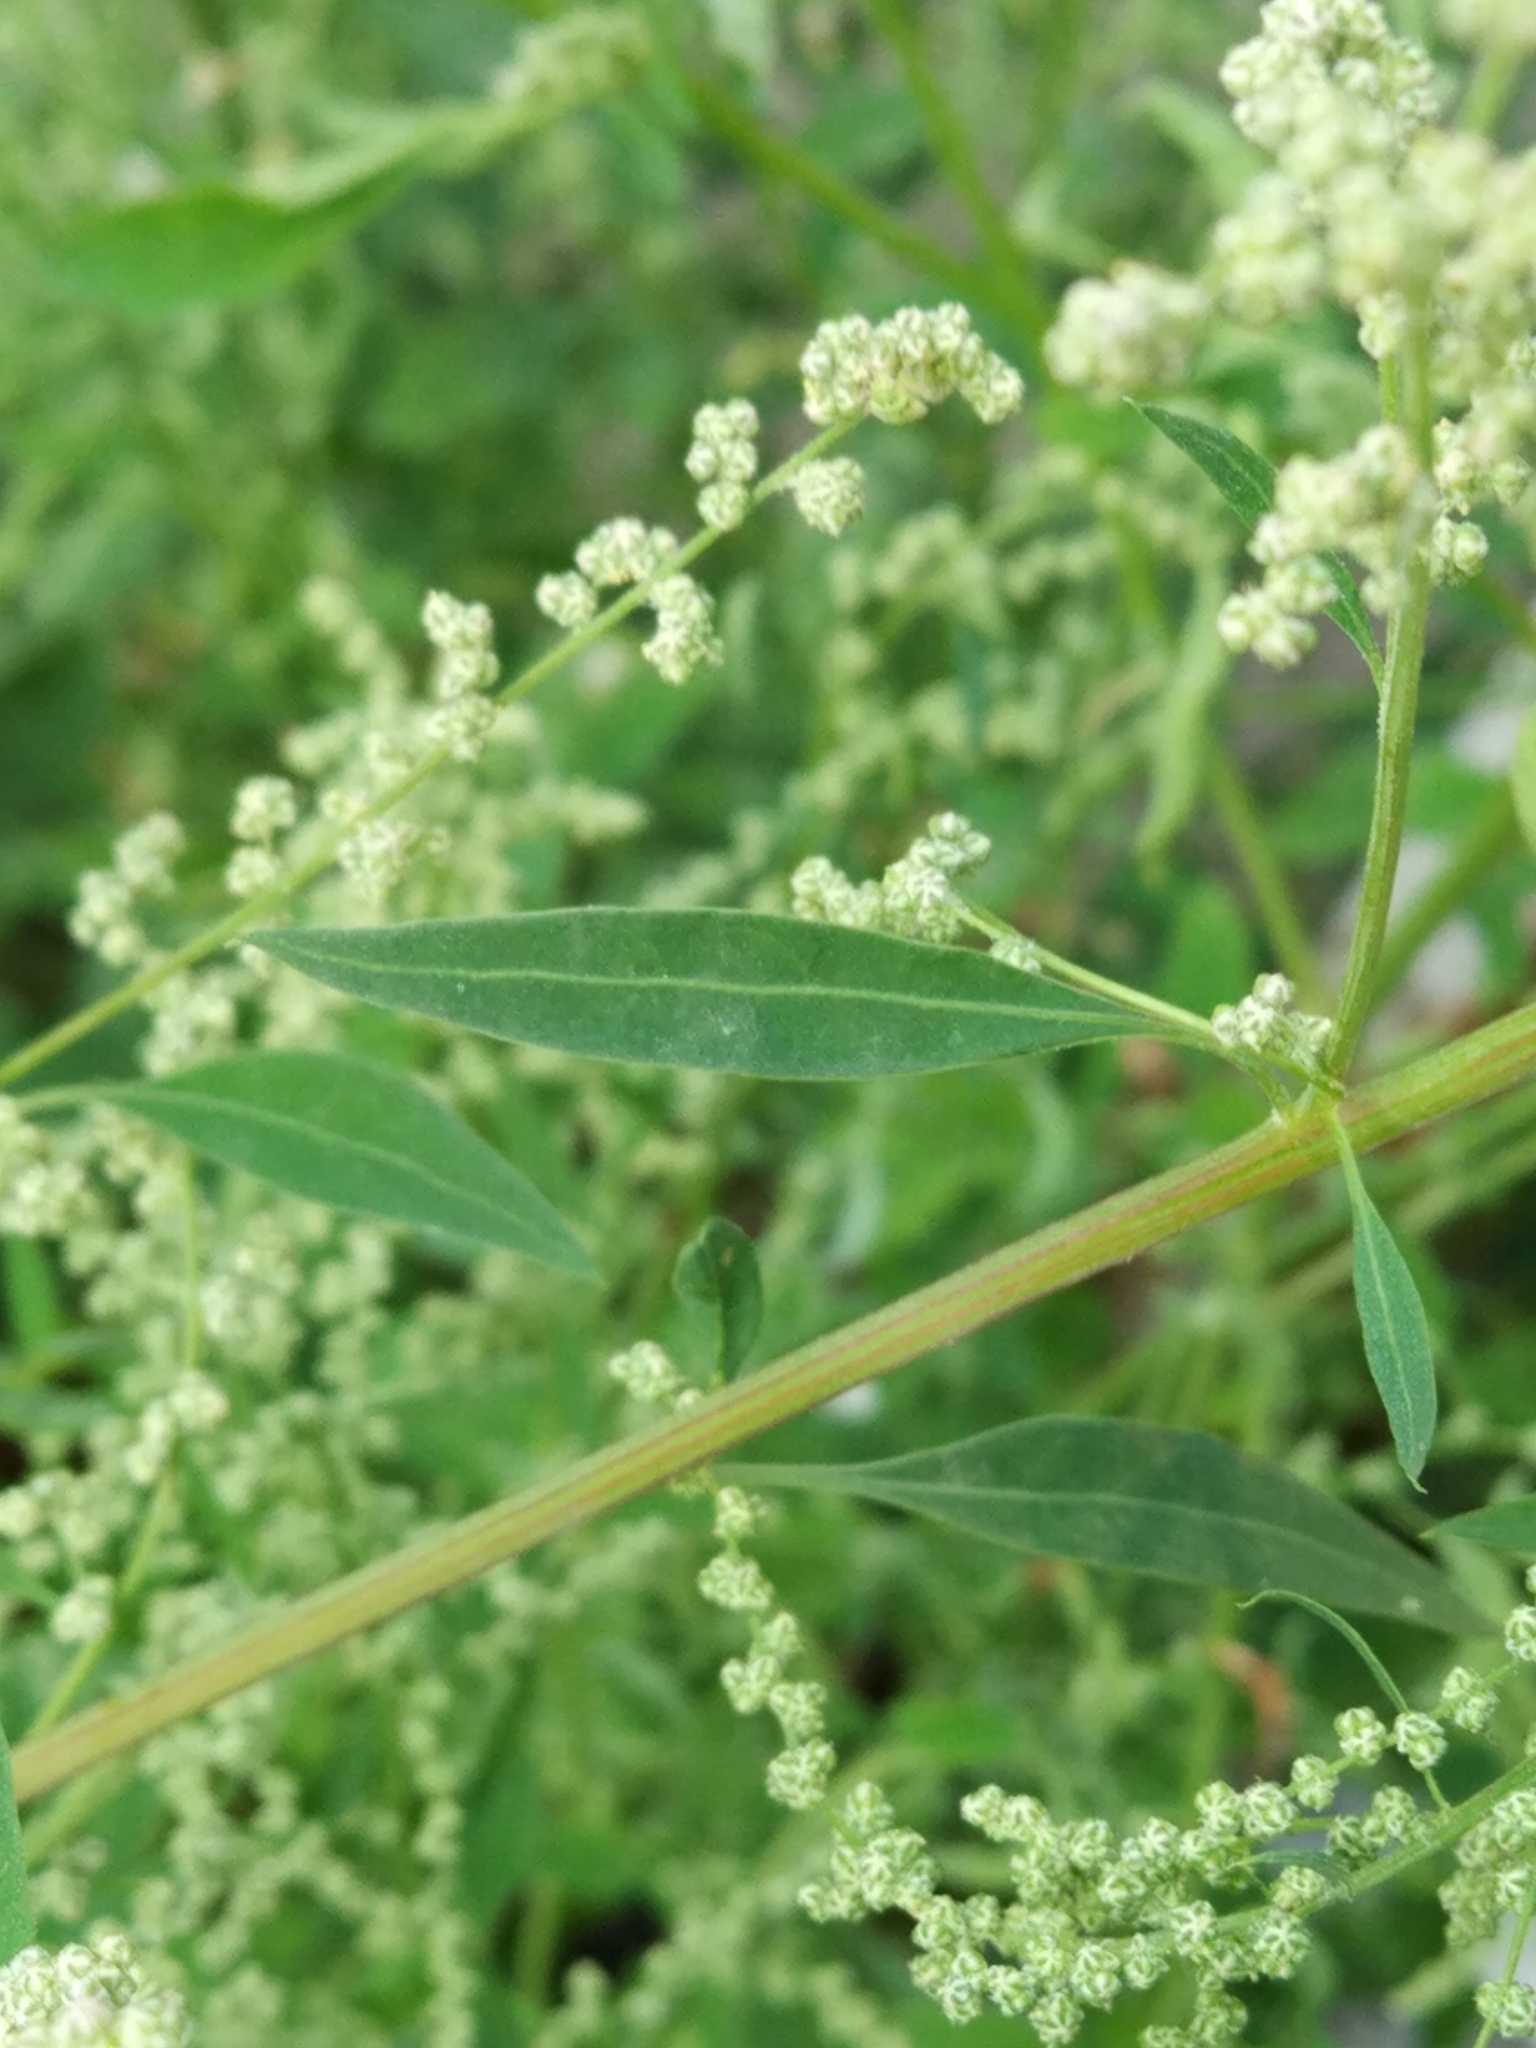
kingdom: Plantae
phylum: Tracheophyta
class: Magnoliopsida
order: Caryophyllales
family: Amaranthaceae
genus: Chenopodium
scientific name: Chenopodium betaceum
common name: Striped goosefoot
